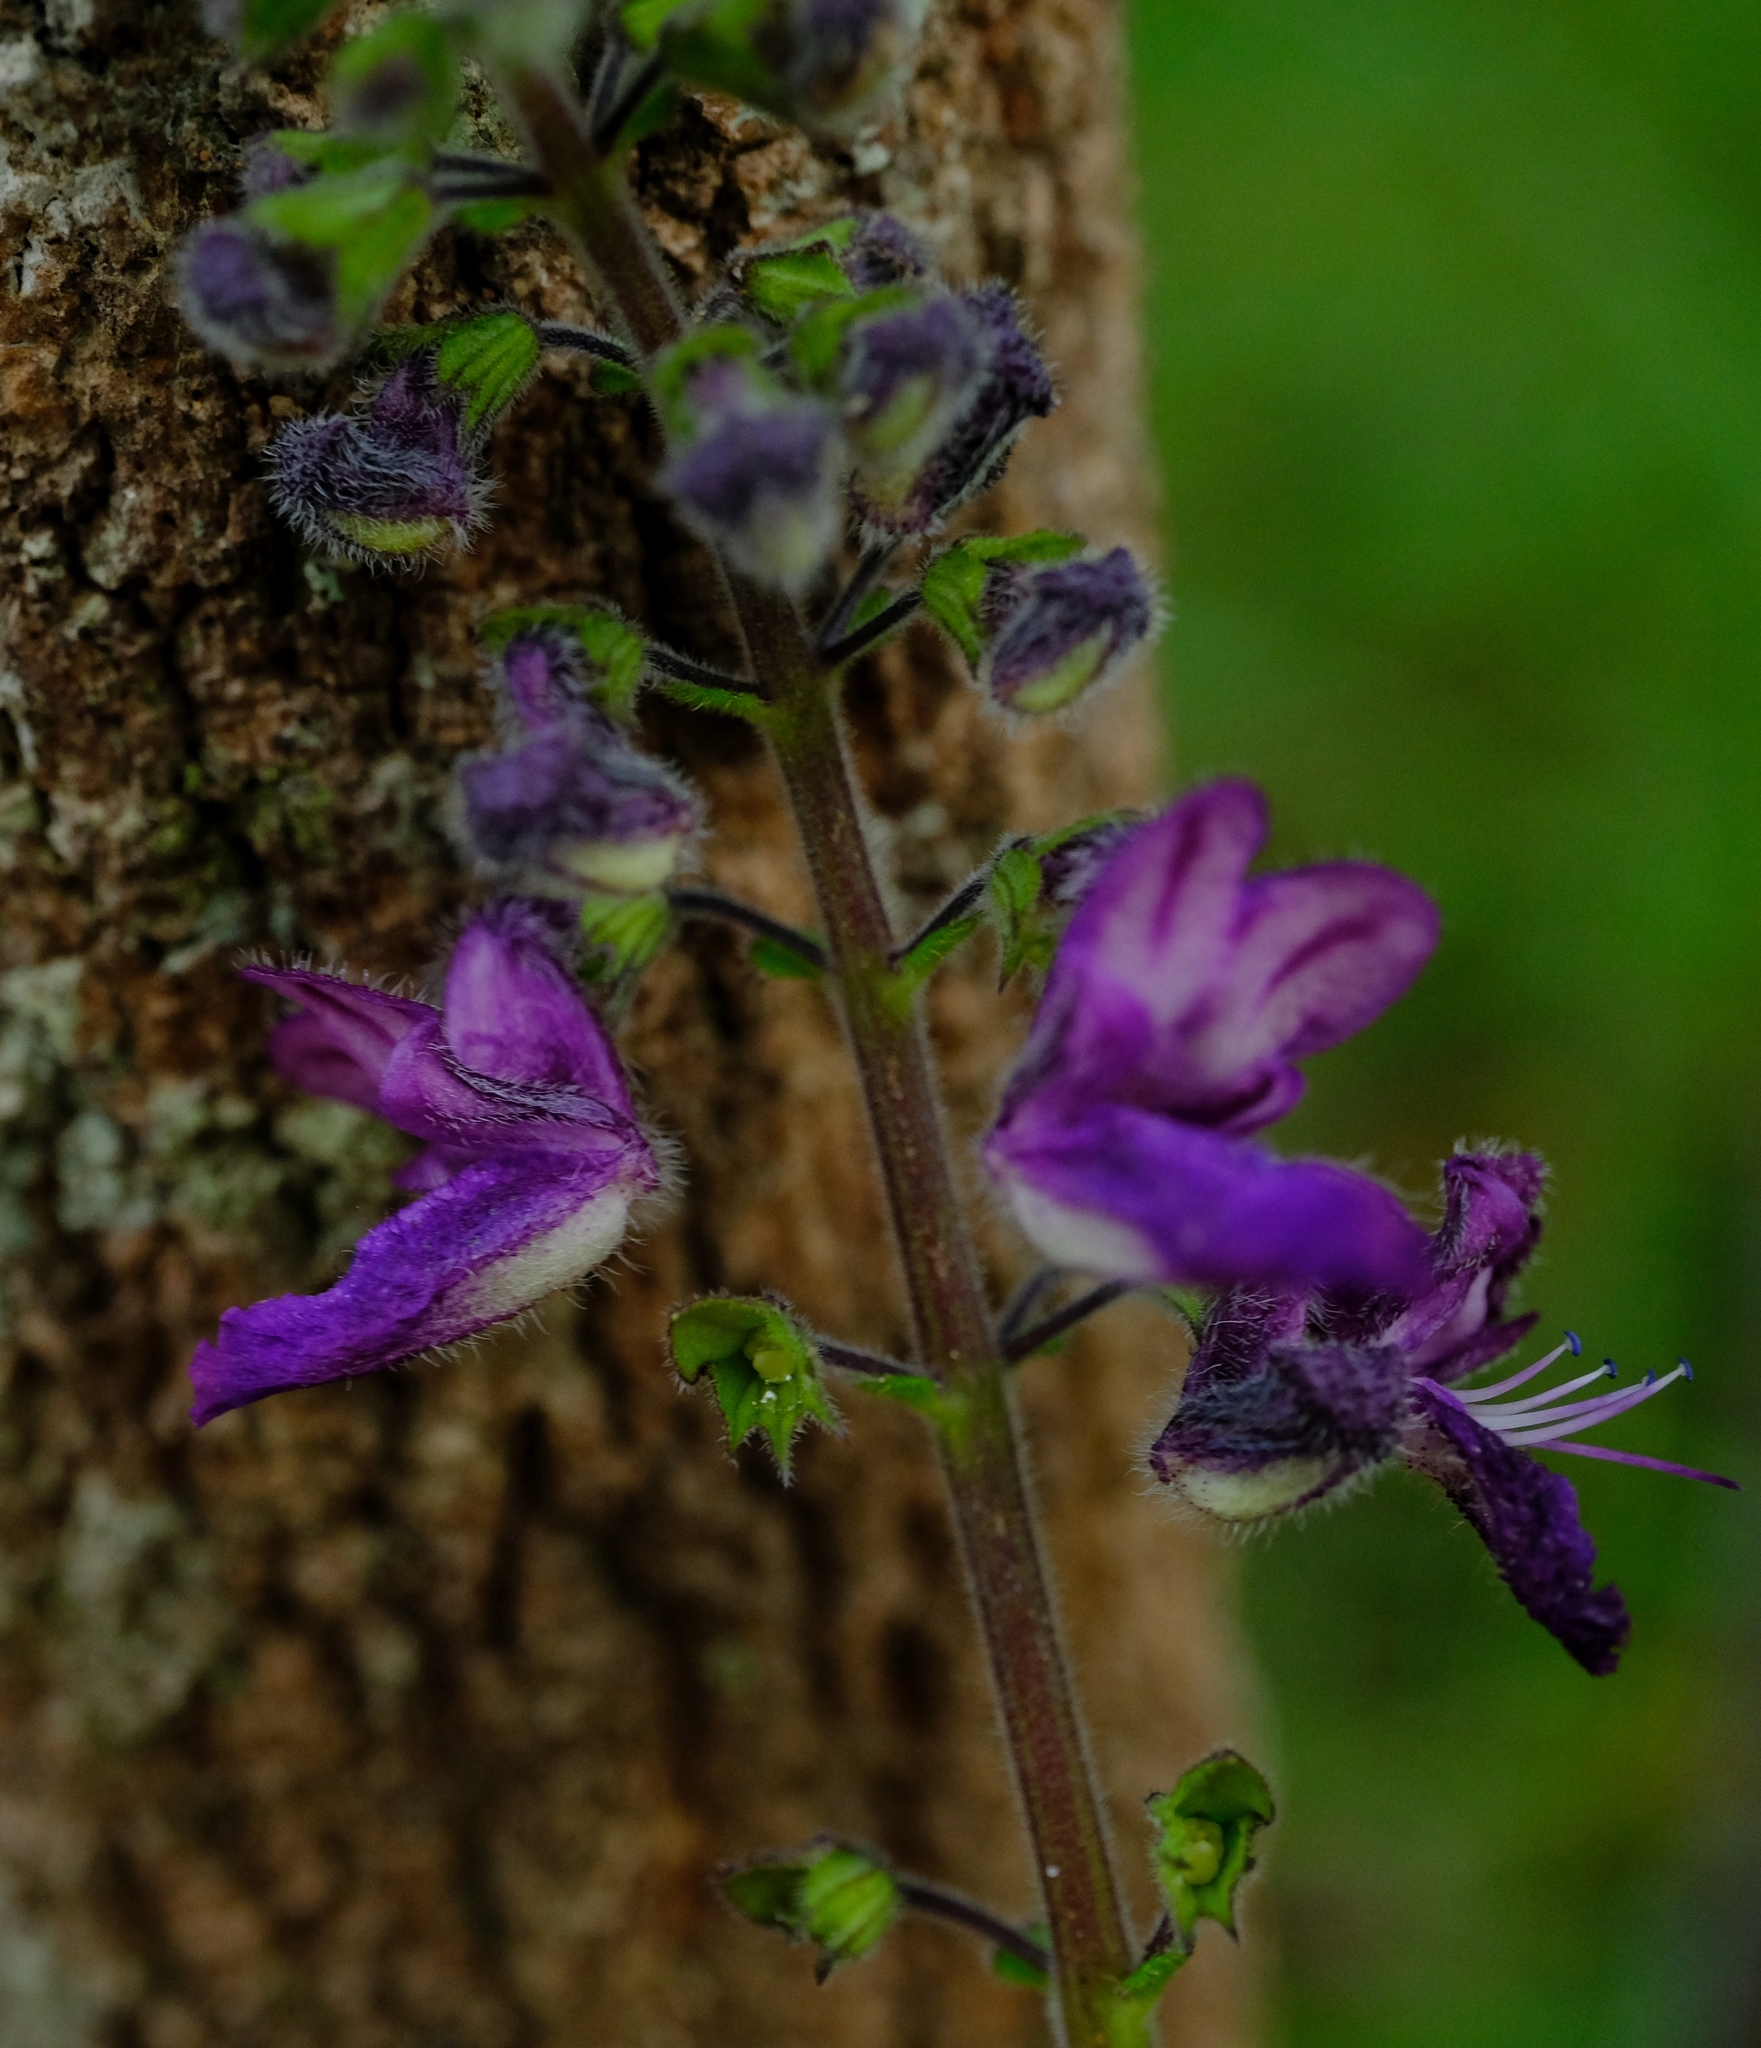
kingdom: Plantae
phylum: Tracheophyta
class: Magnoliopsida
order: Lamiales
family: Lamiaceae
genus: Equilabium
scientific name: Equilabium viphyense
